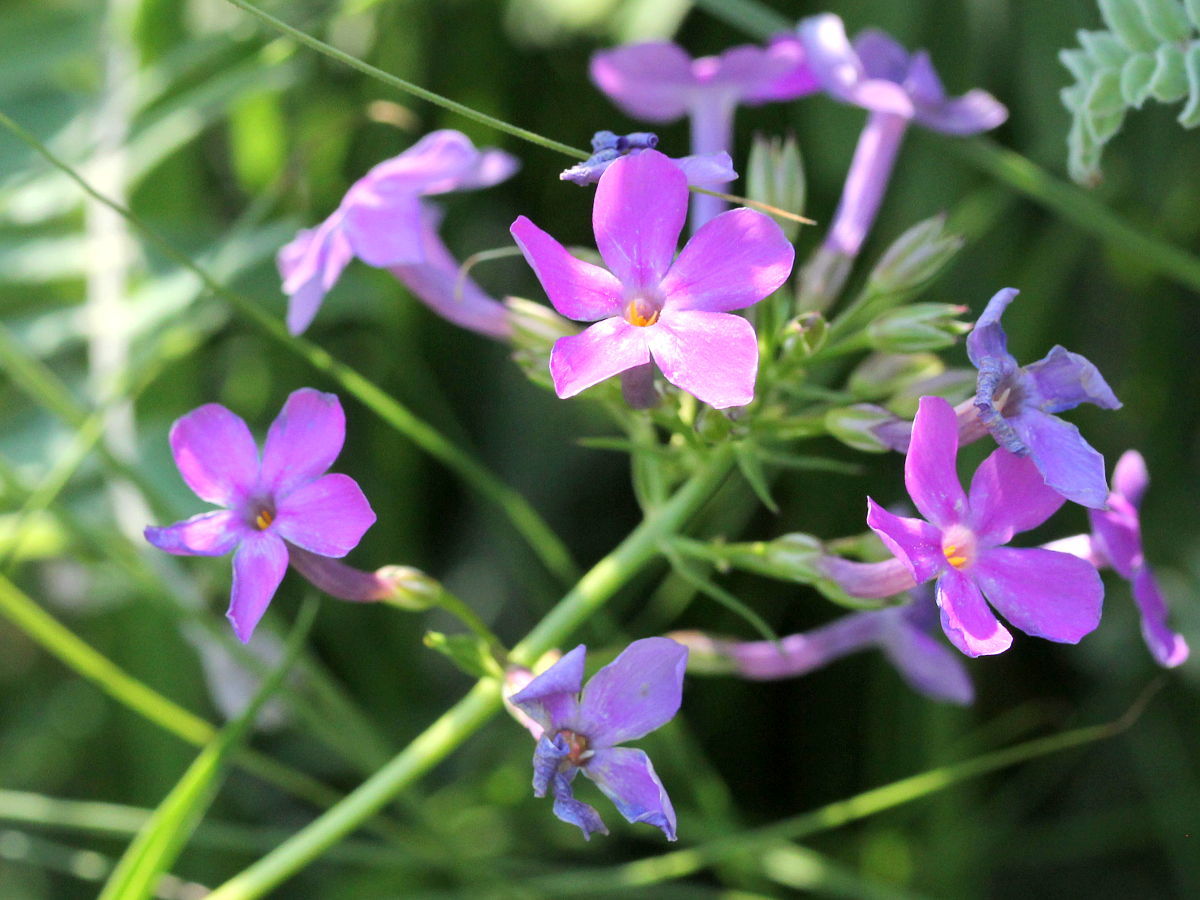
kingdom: Plantae
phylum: Tracheophyta
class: Magnoliopsida
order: Ericales
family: Polemoniaceae
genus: Phlox
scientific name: Phlox glaberrima
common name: Smooth phlox
